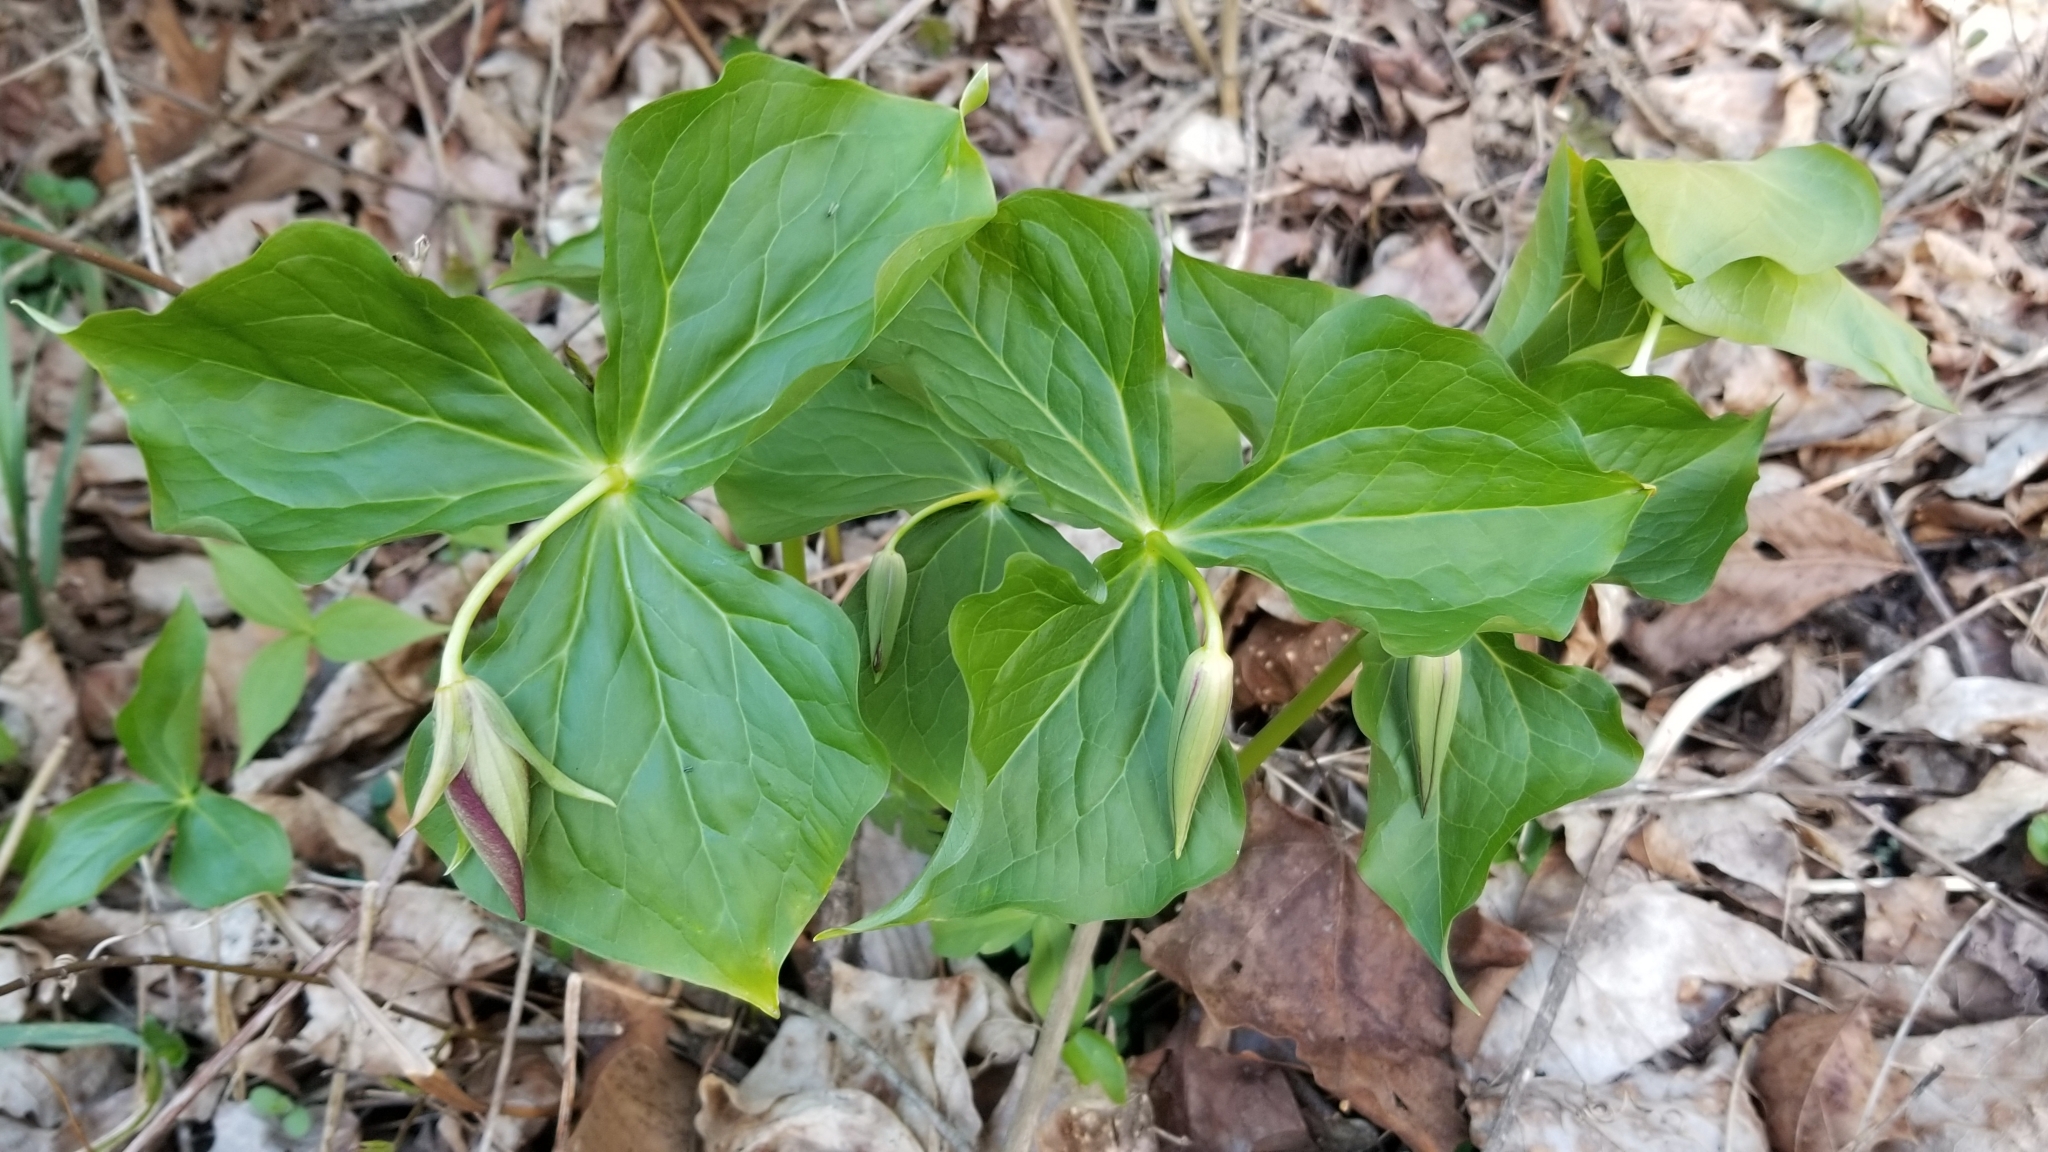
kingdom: Plantae
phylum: Tracheophyta
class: Liliopsida
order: Liliales
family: Melanthiaceae
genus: Trillium
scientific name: Trillium erectum
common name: Purple trillium
